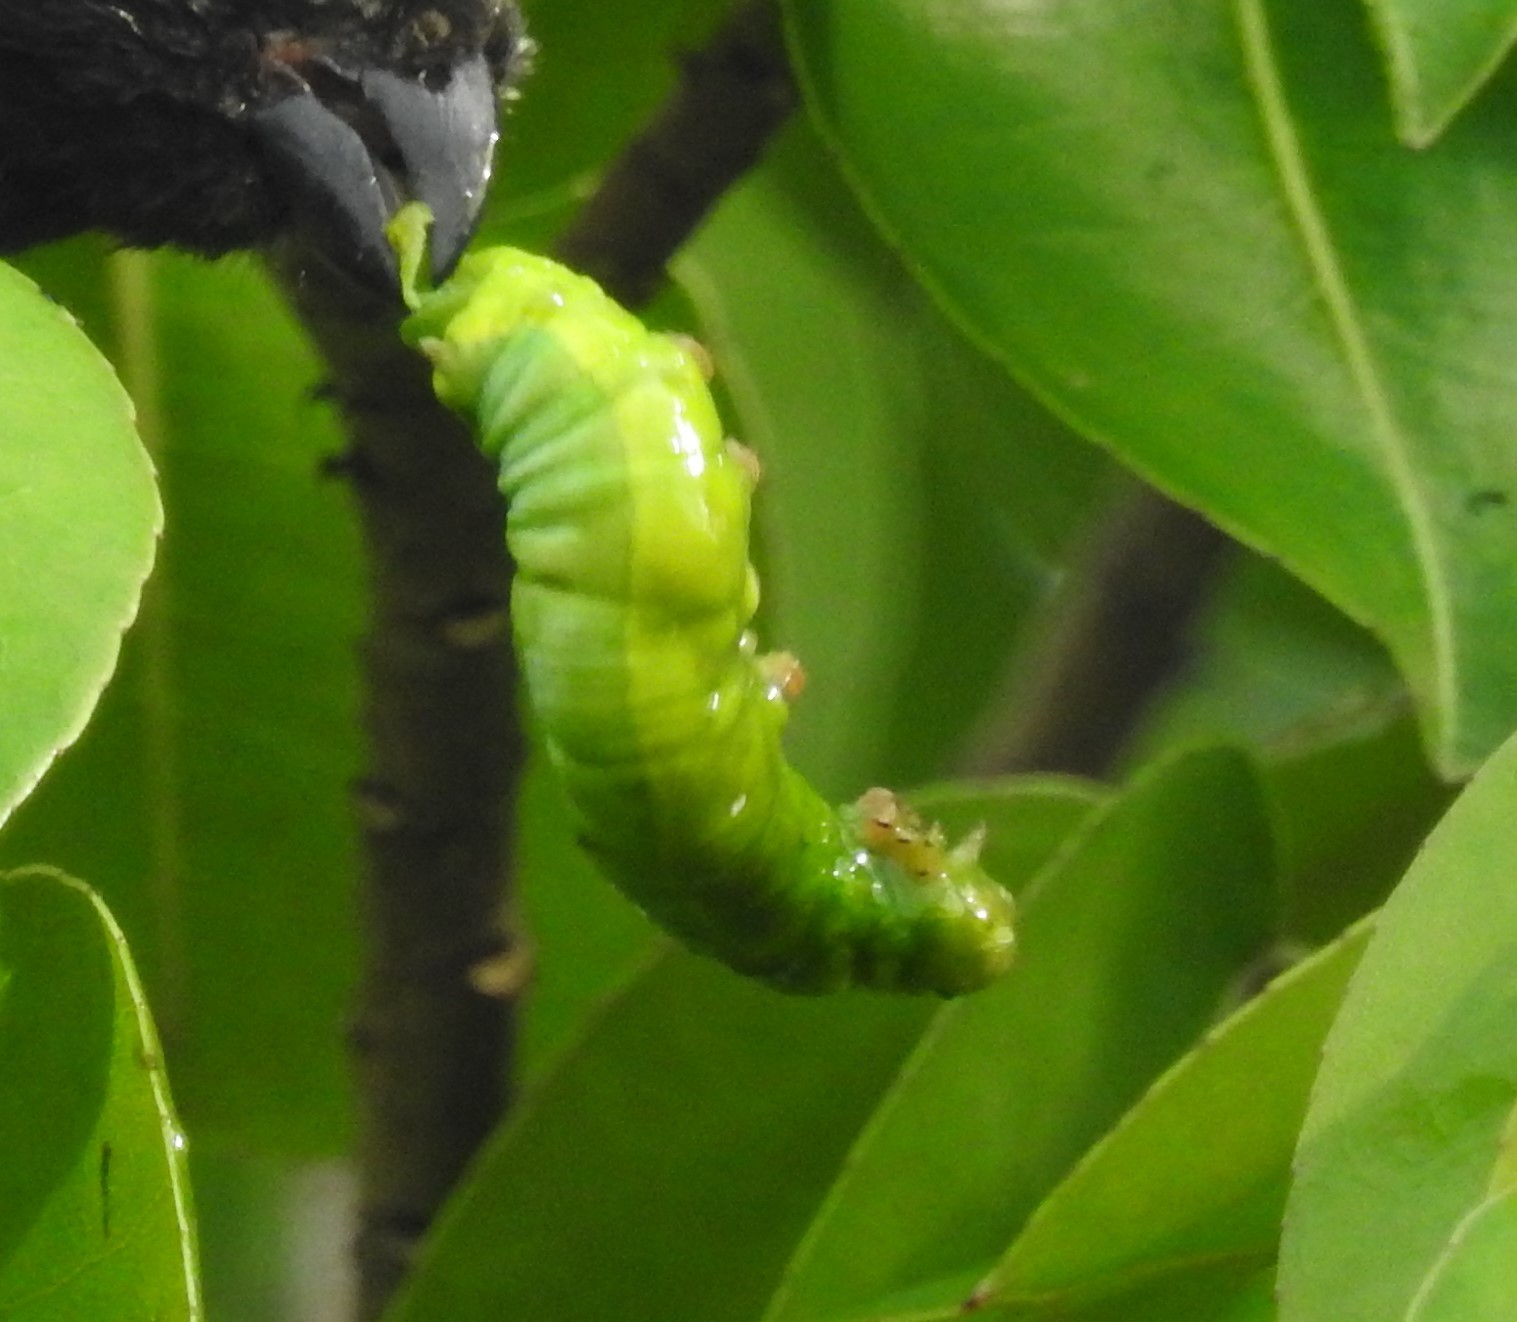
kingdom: Animalia
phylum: Arthropoda
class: Insecta
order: Lepidoptera
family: Sphingidae
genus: Erinnyis
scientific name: Erinnyis ello
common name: Ello sphinx
